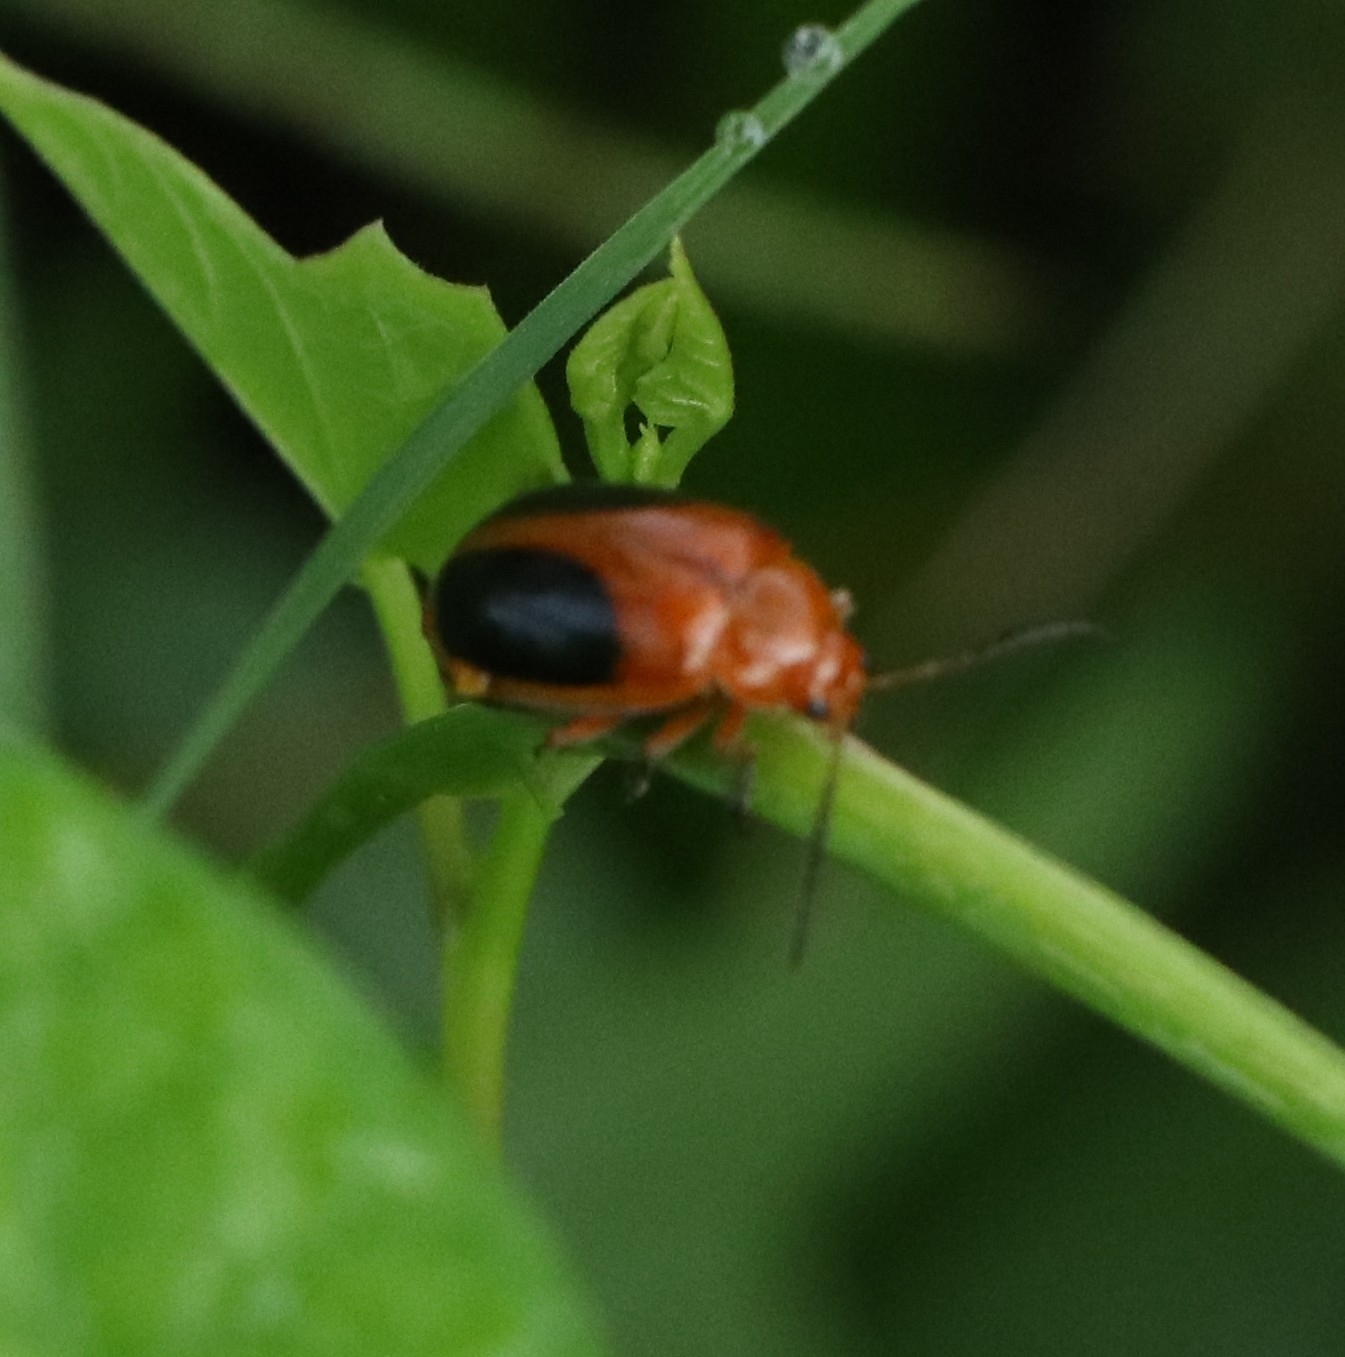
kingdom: Animalia
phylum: Arthropoda
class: Insecta
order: Coleoptera
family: Chrysomelidae
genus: Oides
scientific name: Oides affinis
